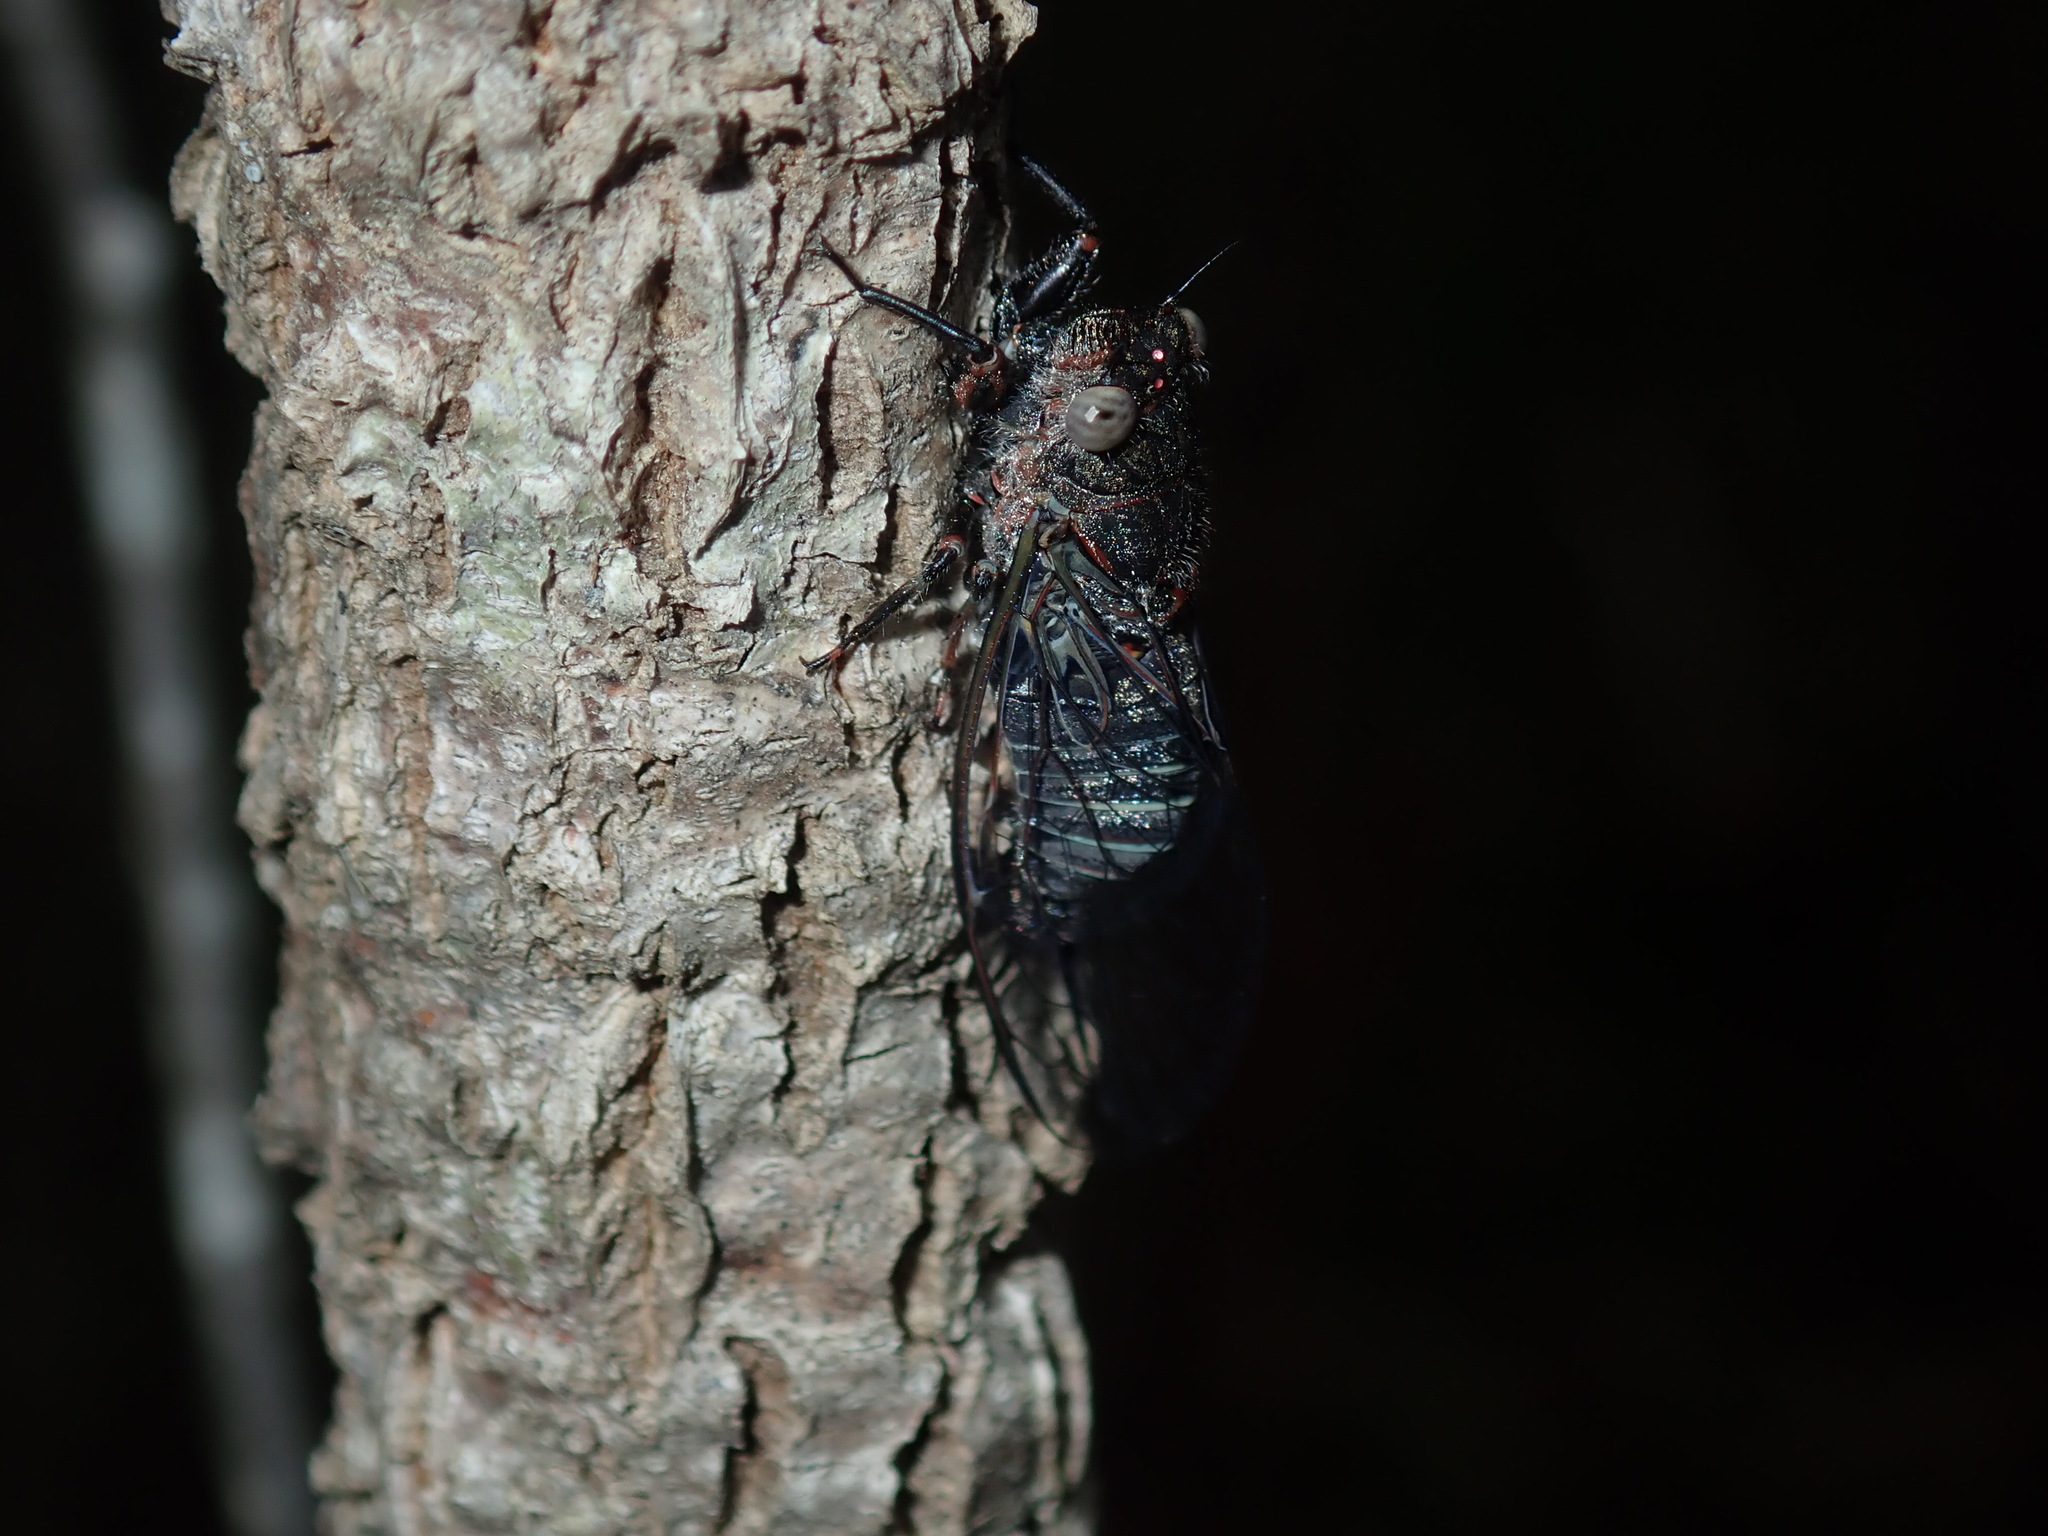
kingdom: Animalia
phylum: Arthropoda
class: Insecta
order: Hemiptera
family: Cicadidae
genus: Atrapsalta
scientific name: Atrapsalta fuscata
